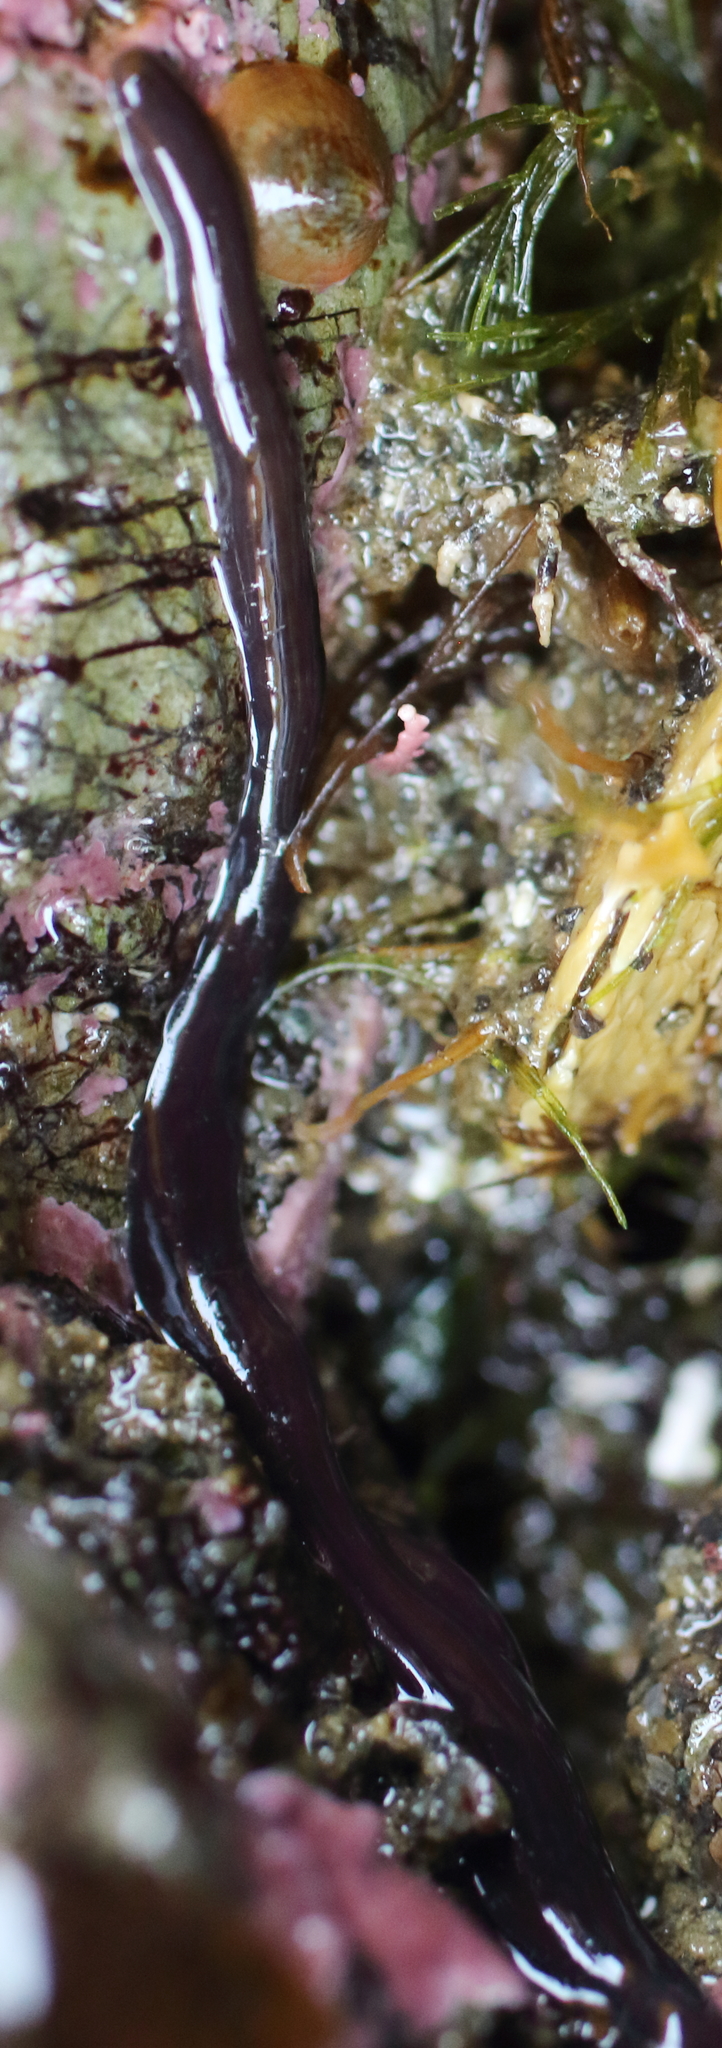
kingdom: Animalia
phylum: Nemertea
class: Hoplonemertea
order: Monostilifera
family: Neesiidae
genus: Paranemertes
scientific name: Paranemertes peregrina
